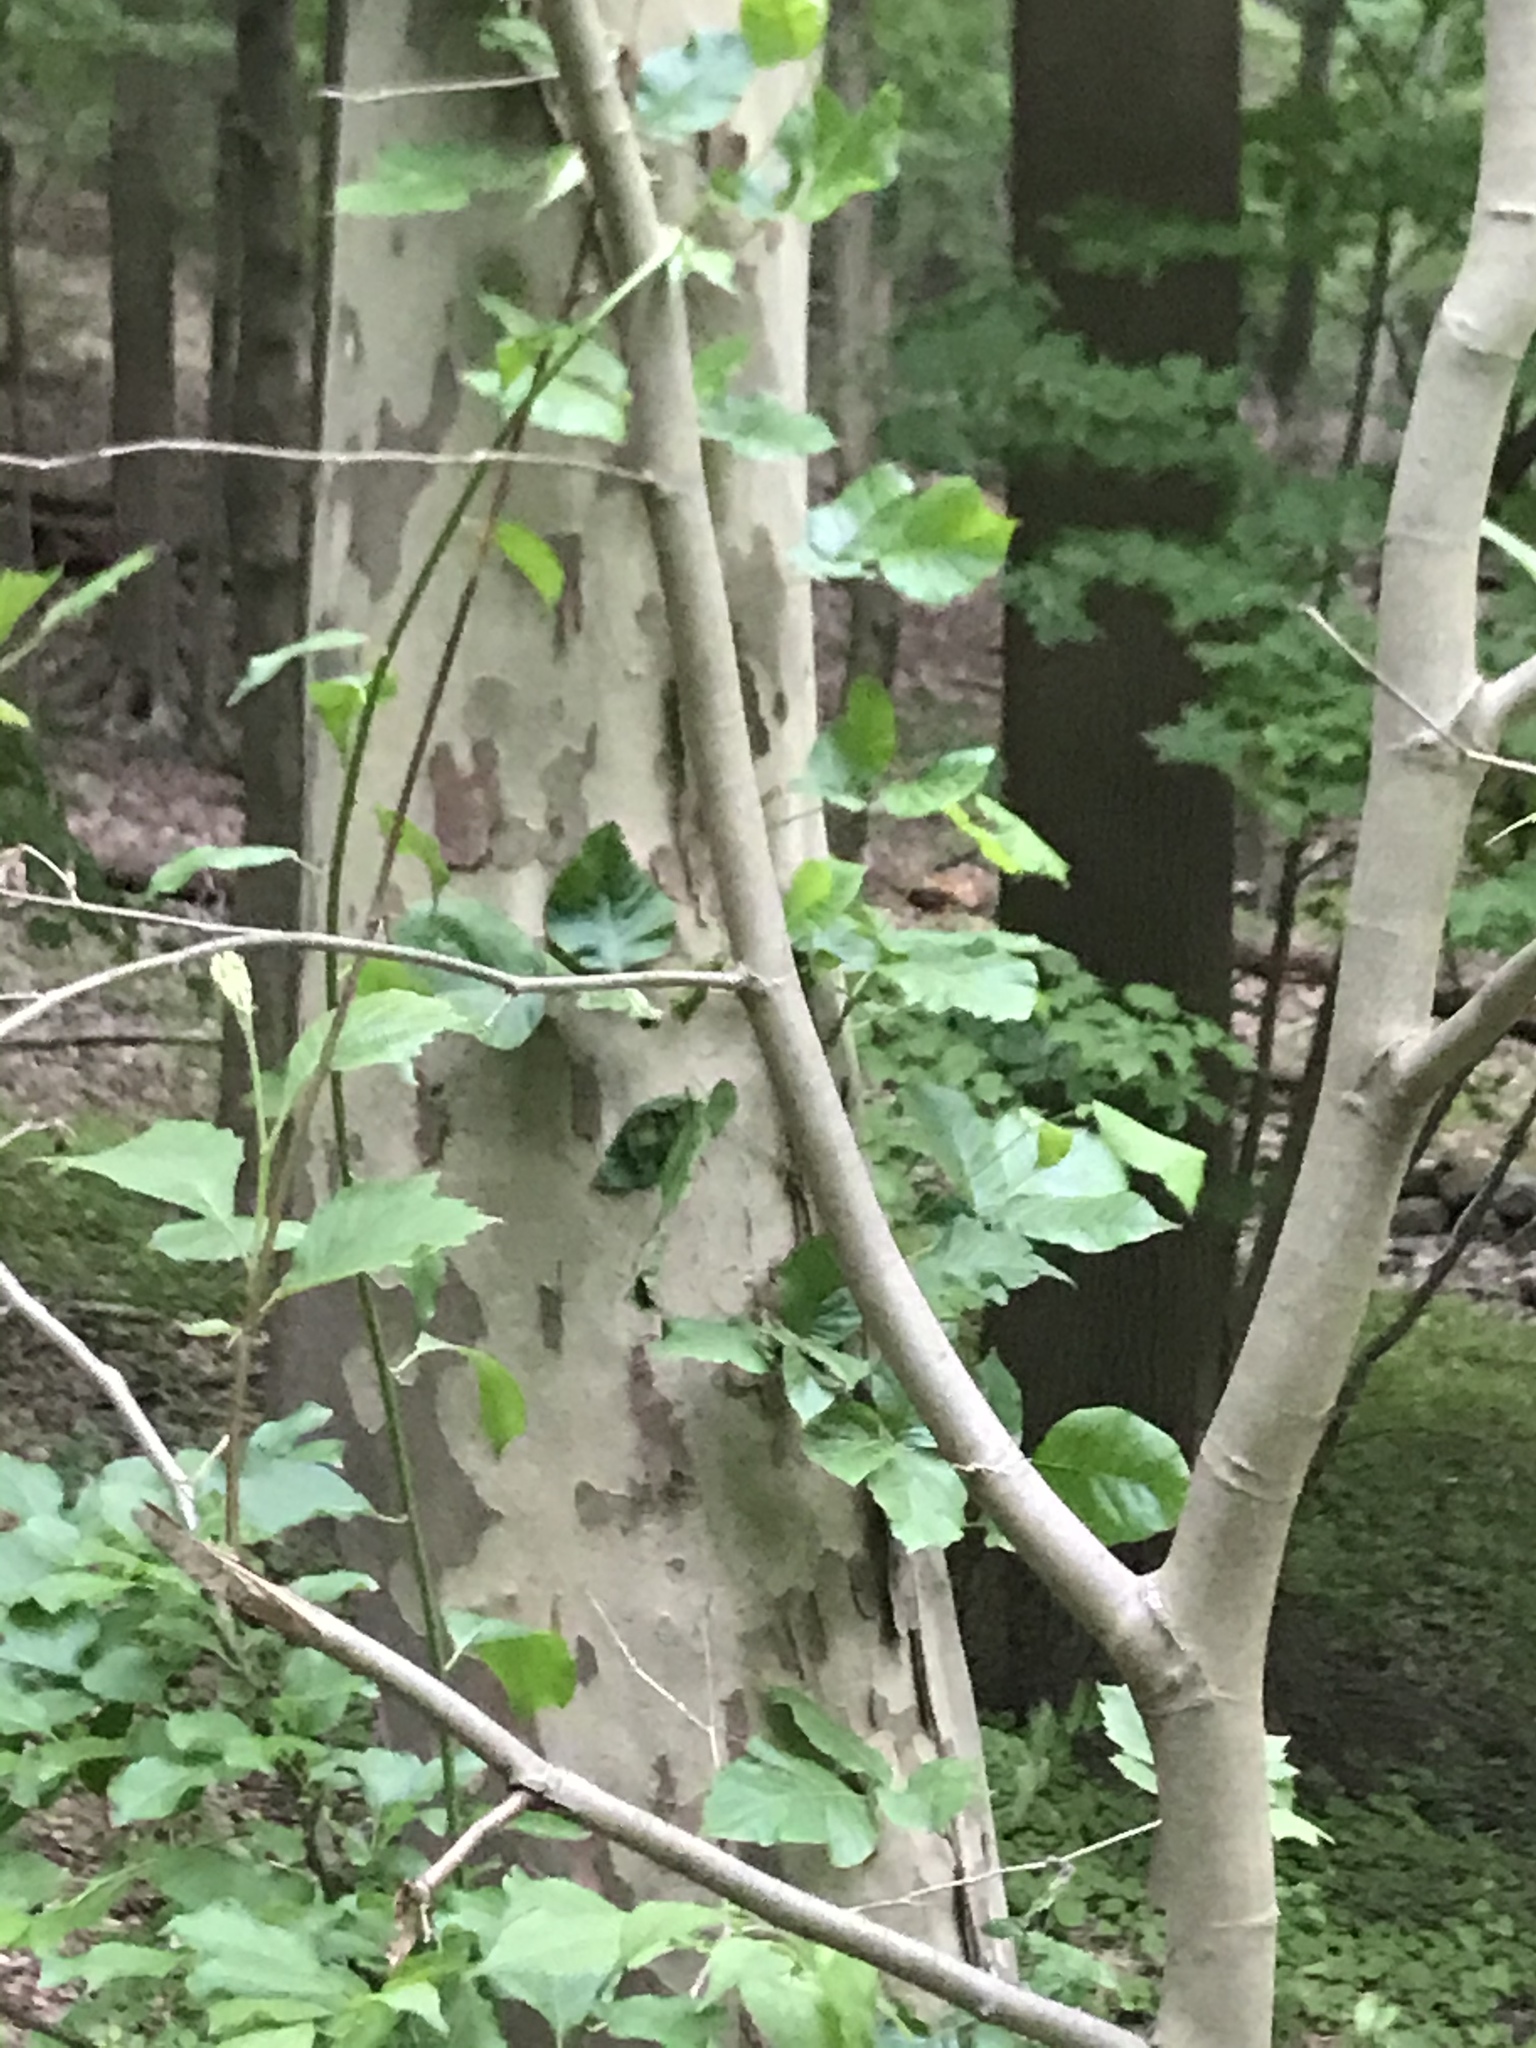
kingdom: Plantae
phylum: Tracheophyta
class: Magnoliopsida
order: Proteales
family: Platanaceae
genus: Platanus
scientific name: Platanus occidentalis
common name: American sycamore
